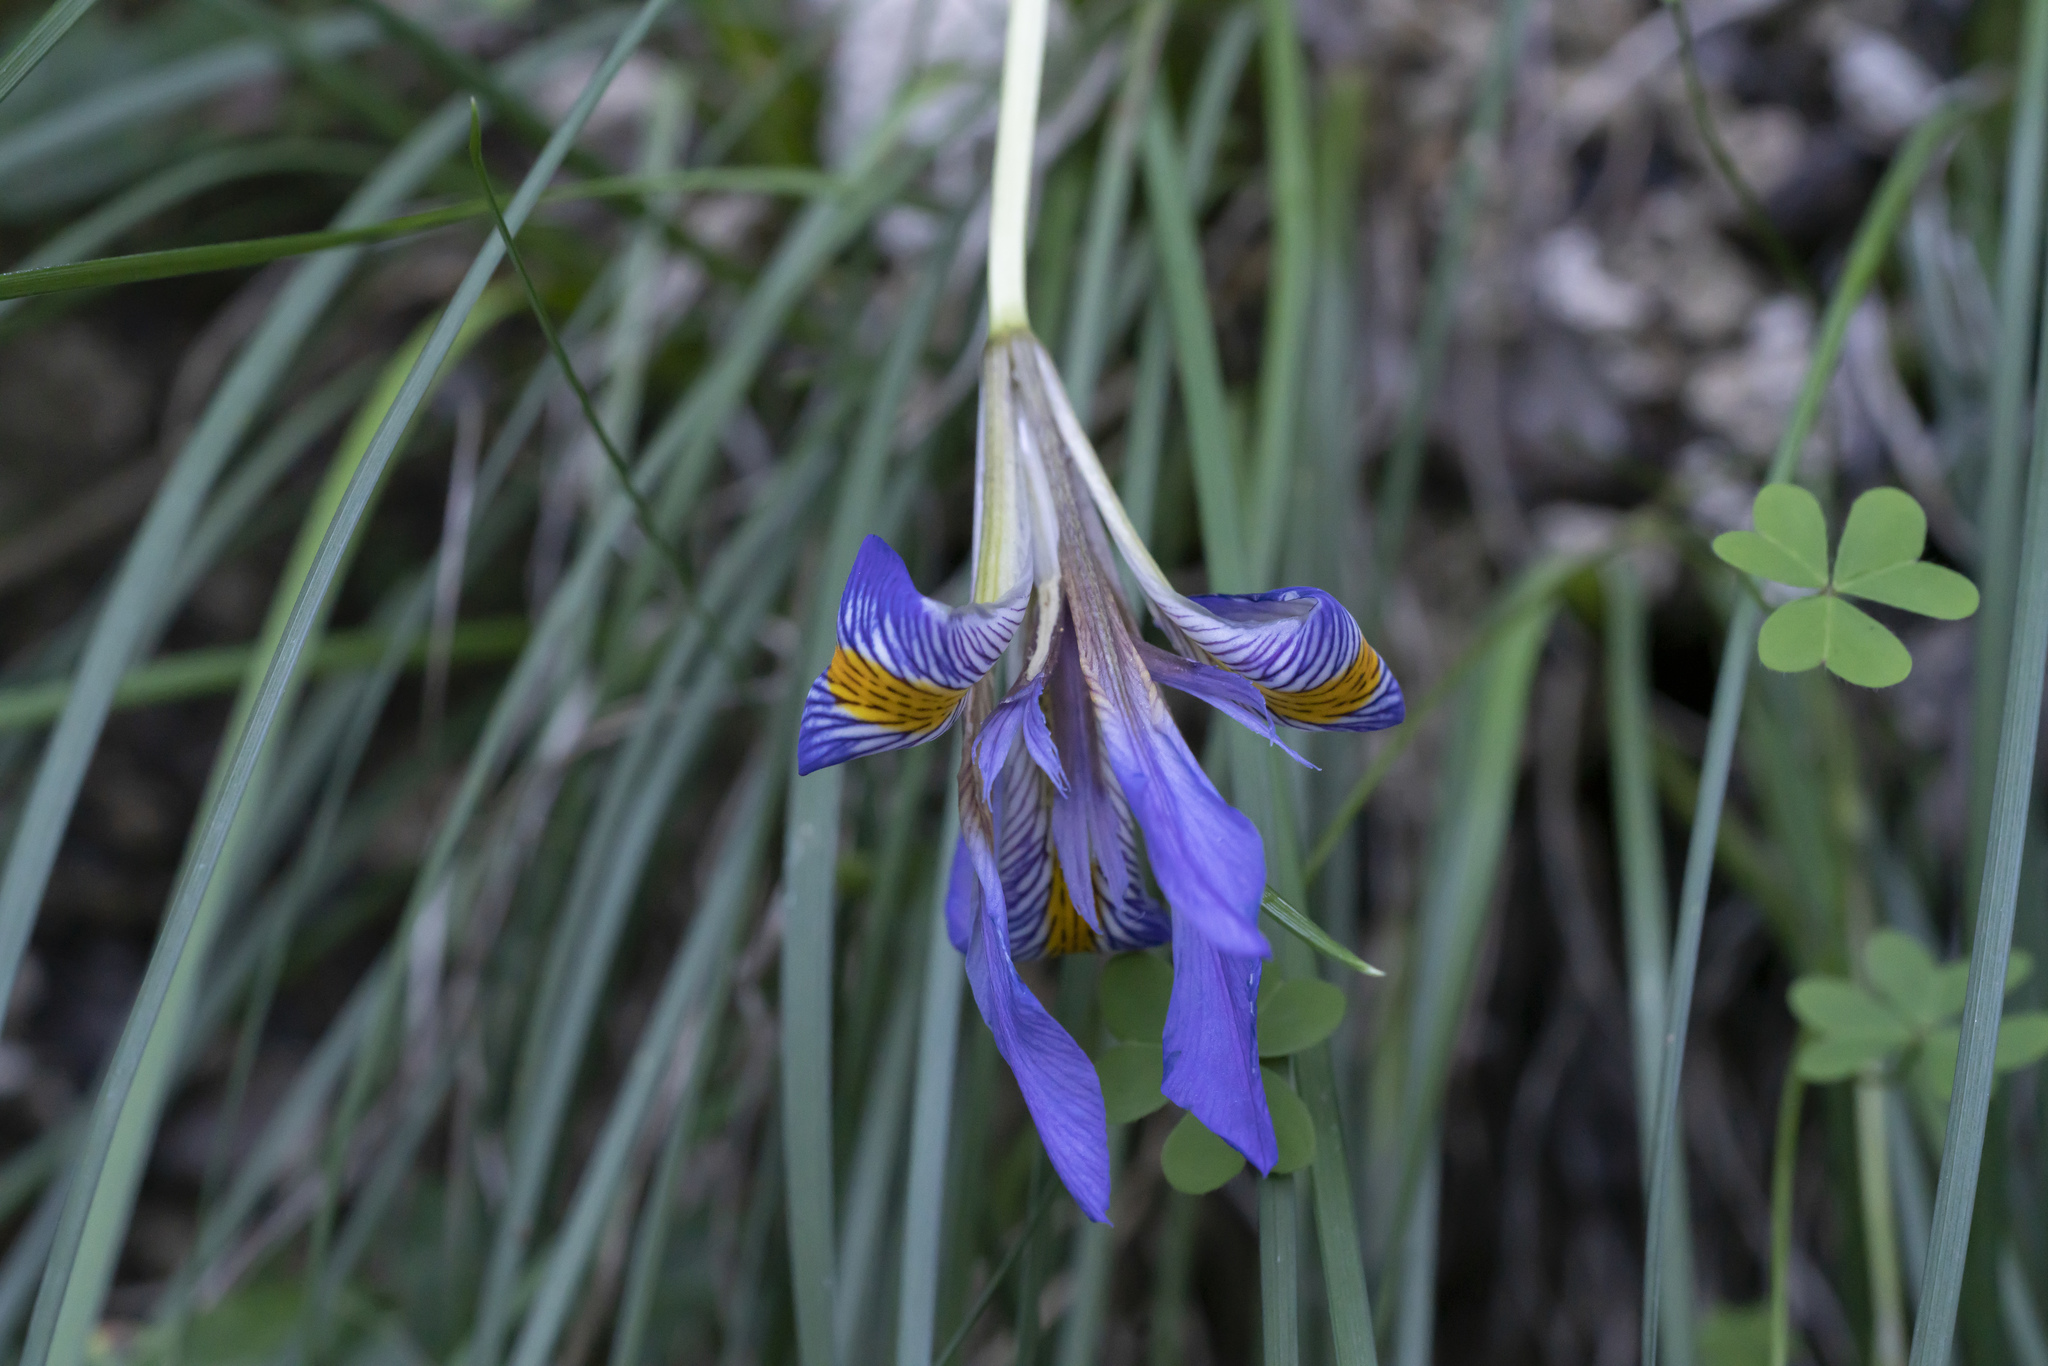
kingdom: Plantae
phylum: Tracheophyta
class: Liliopsida
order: Asparagales
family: Iridaceae
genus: Iris
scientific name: Iris unguicularis
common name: Algerian iris
